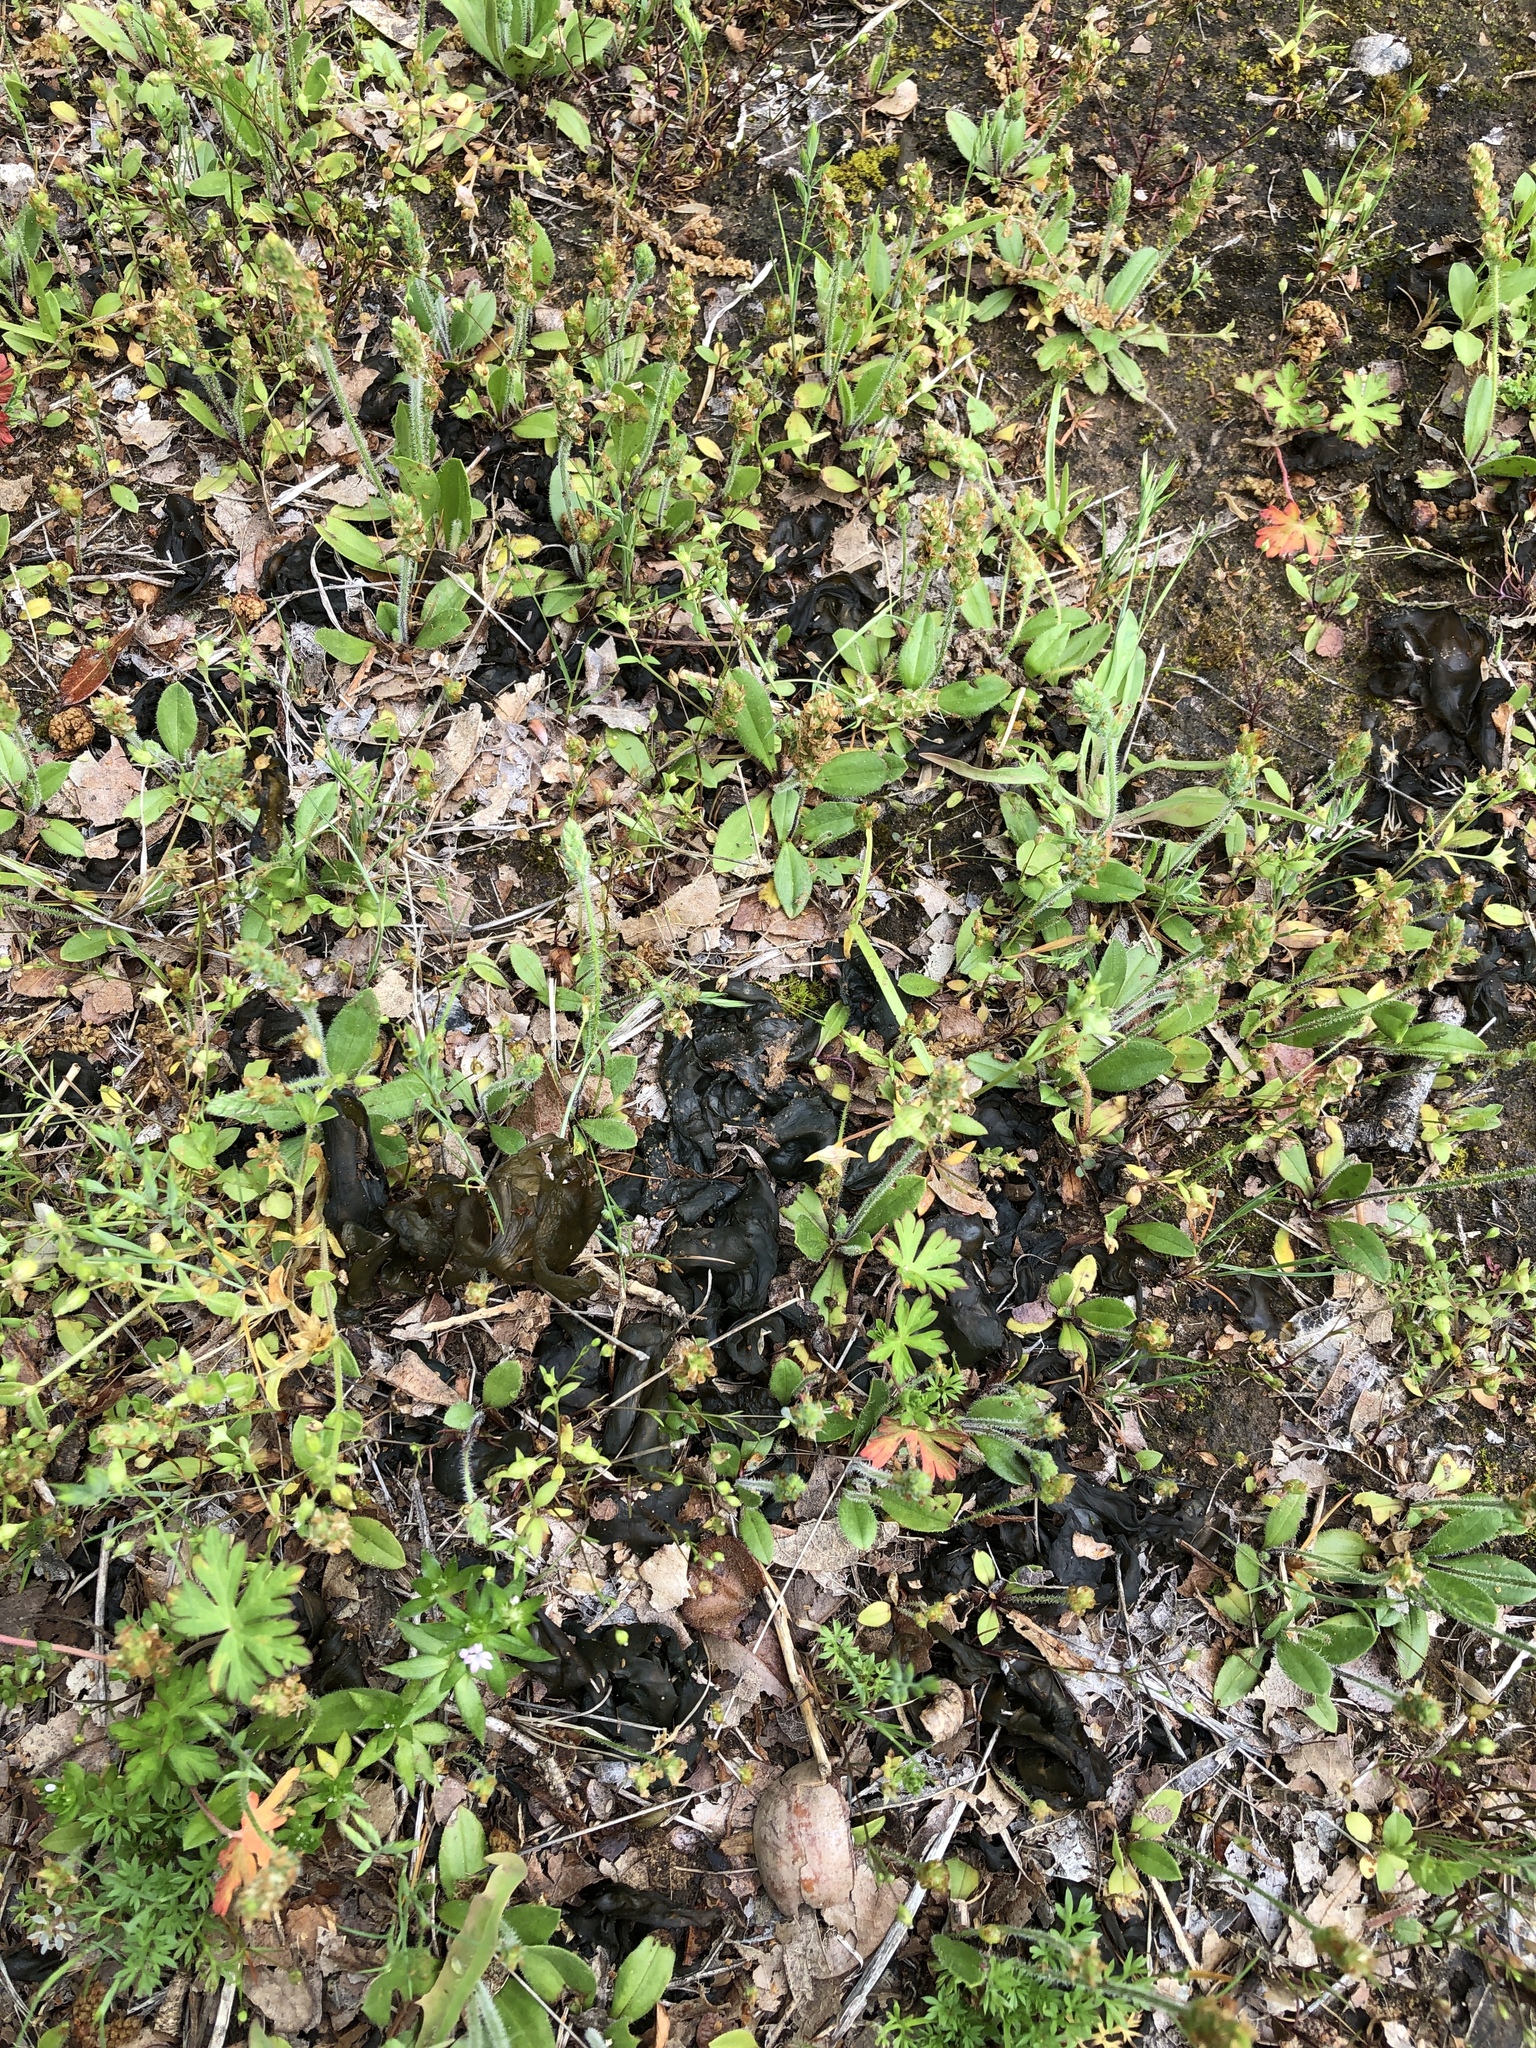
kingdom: Bacteria
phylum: Cyanobacteria
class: Cyanobacteriia
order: Cyanobacteriales
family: Nostocaceae
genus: Nostoc
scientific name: Nostoc commune
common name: Star jelly
